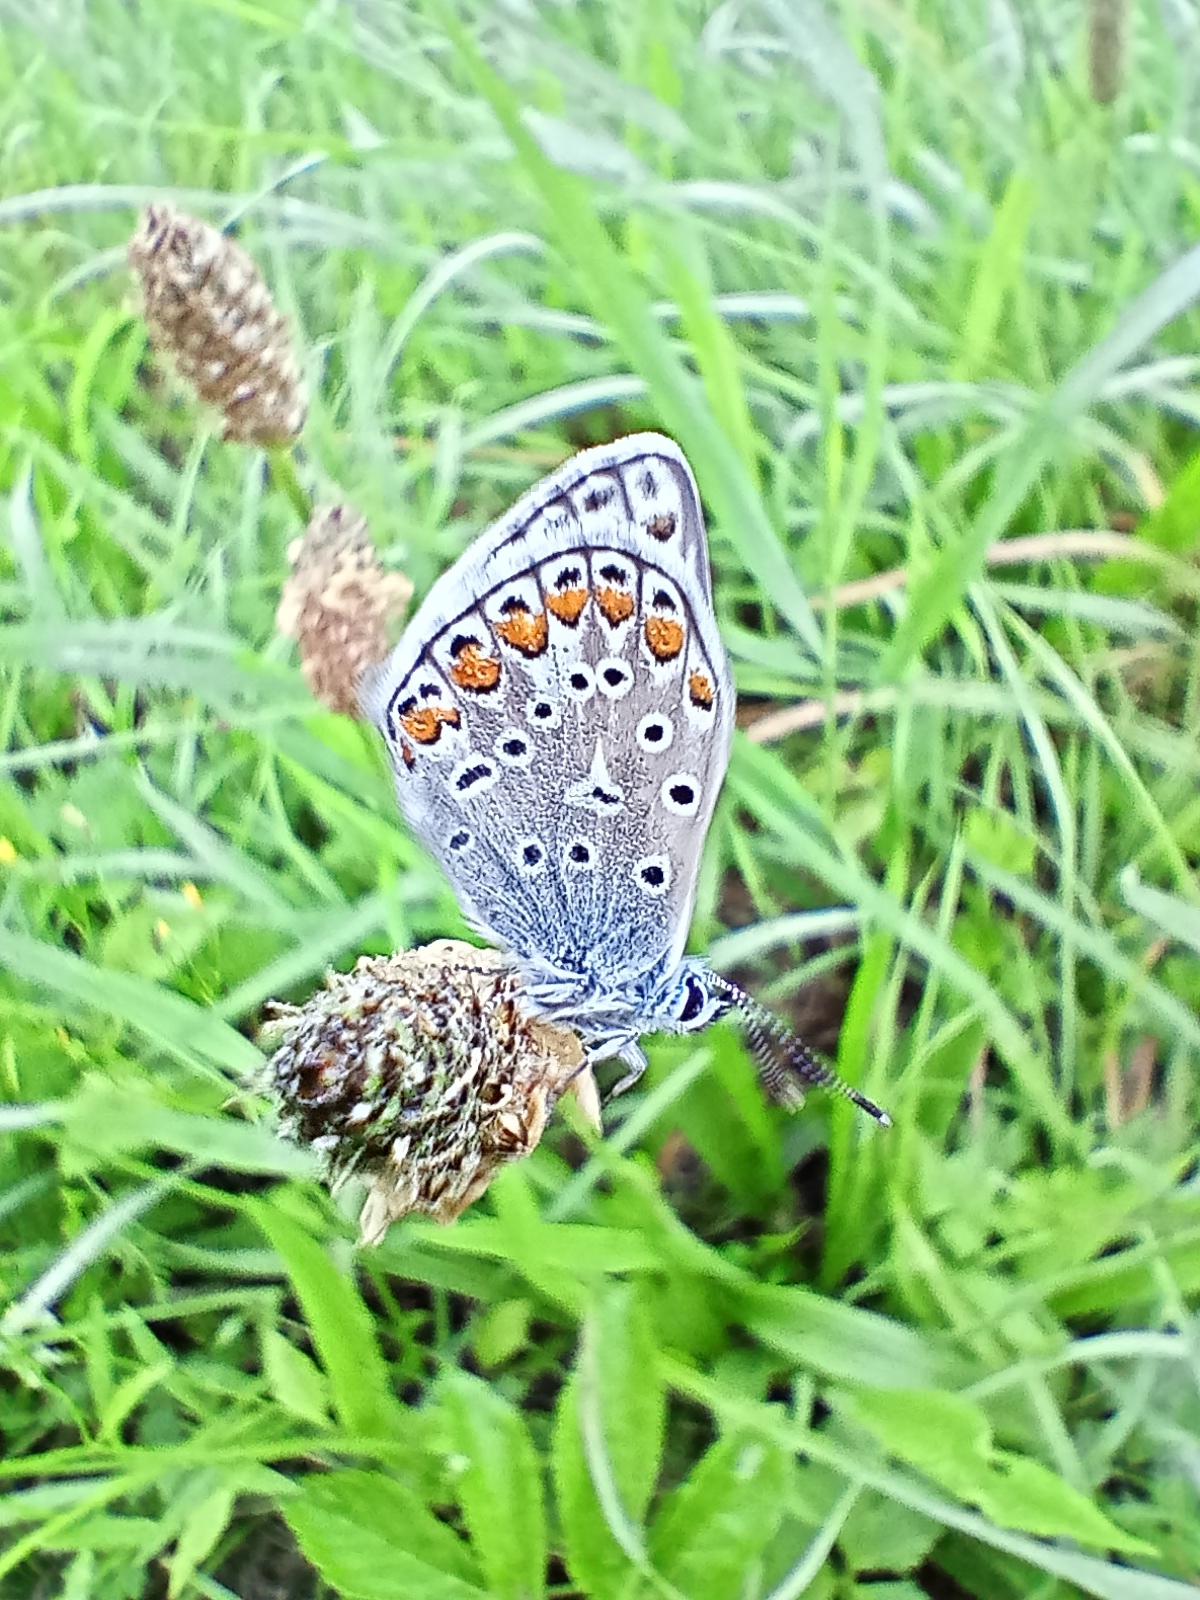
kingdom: Animalia
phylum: Arthropoda
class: Insecta
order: Lepidoptera
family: Lycaenidae
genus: Polyommatus
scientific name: Polyommatus icarus
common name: Common blue
